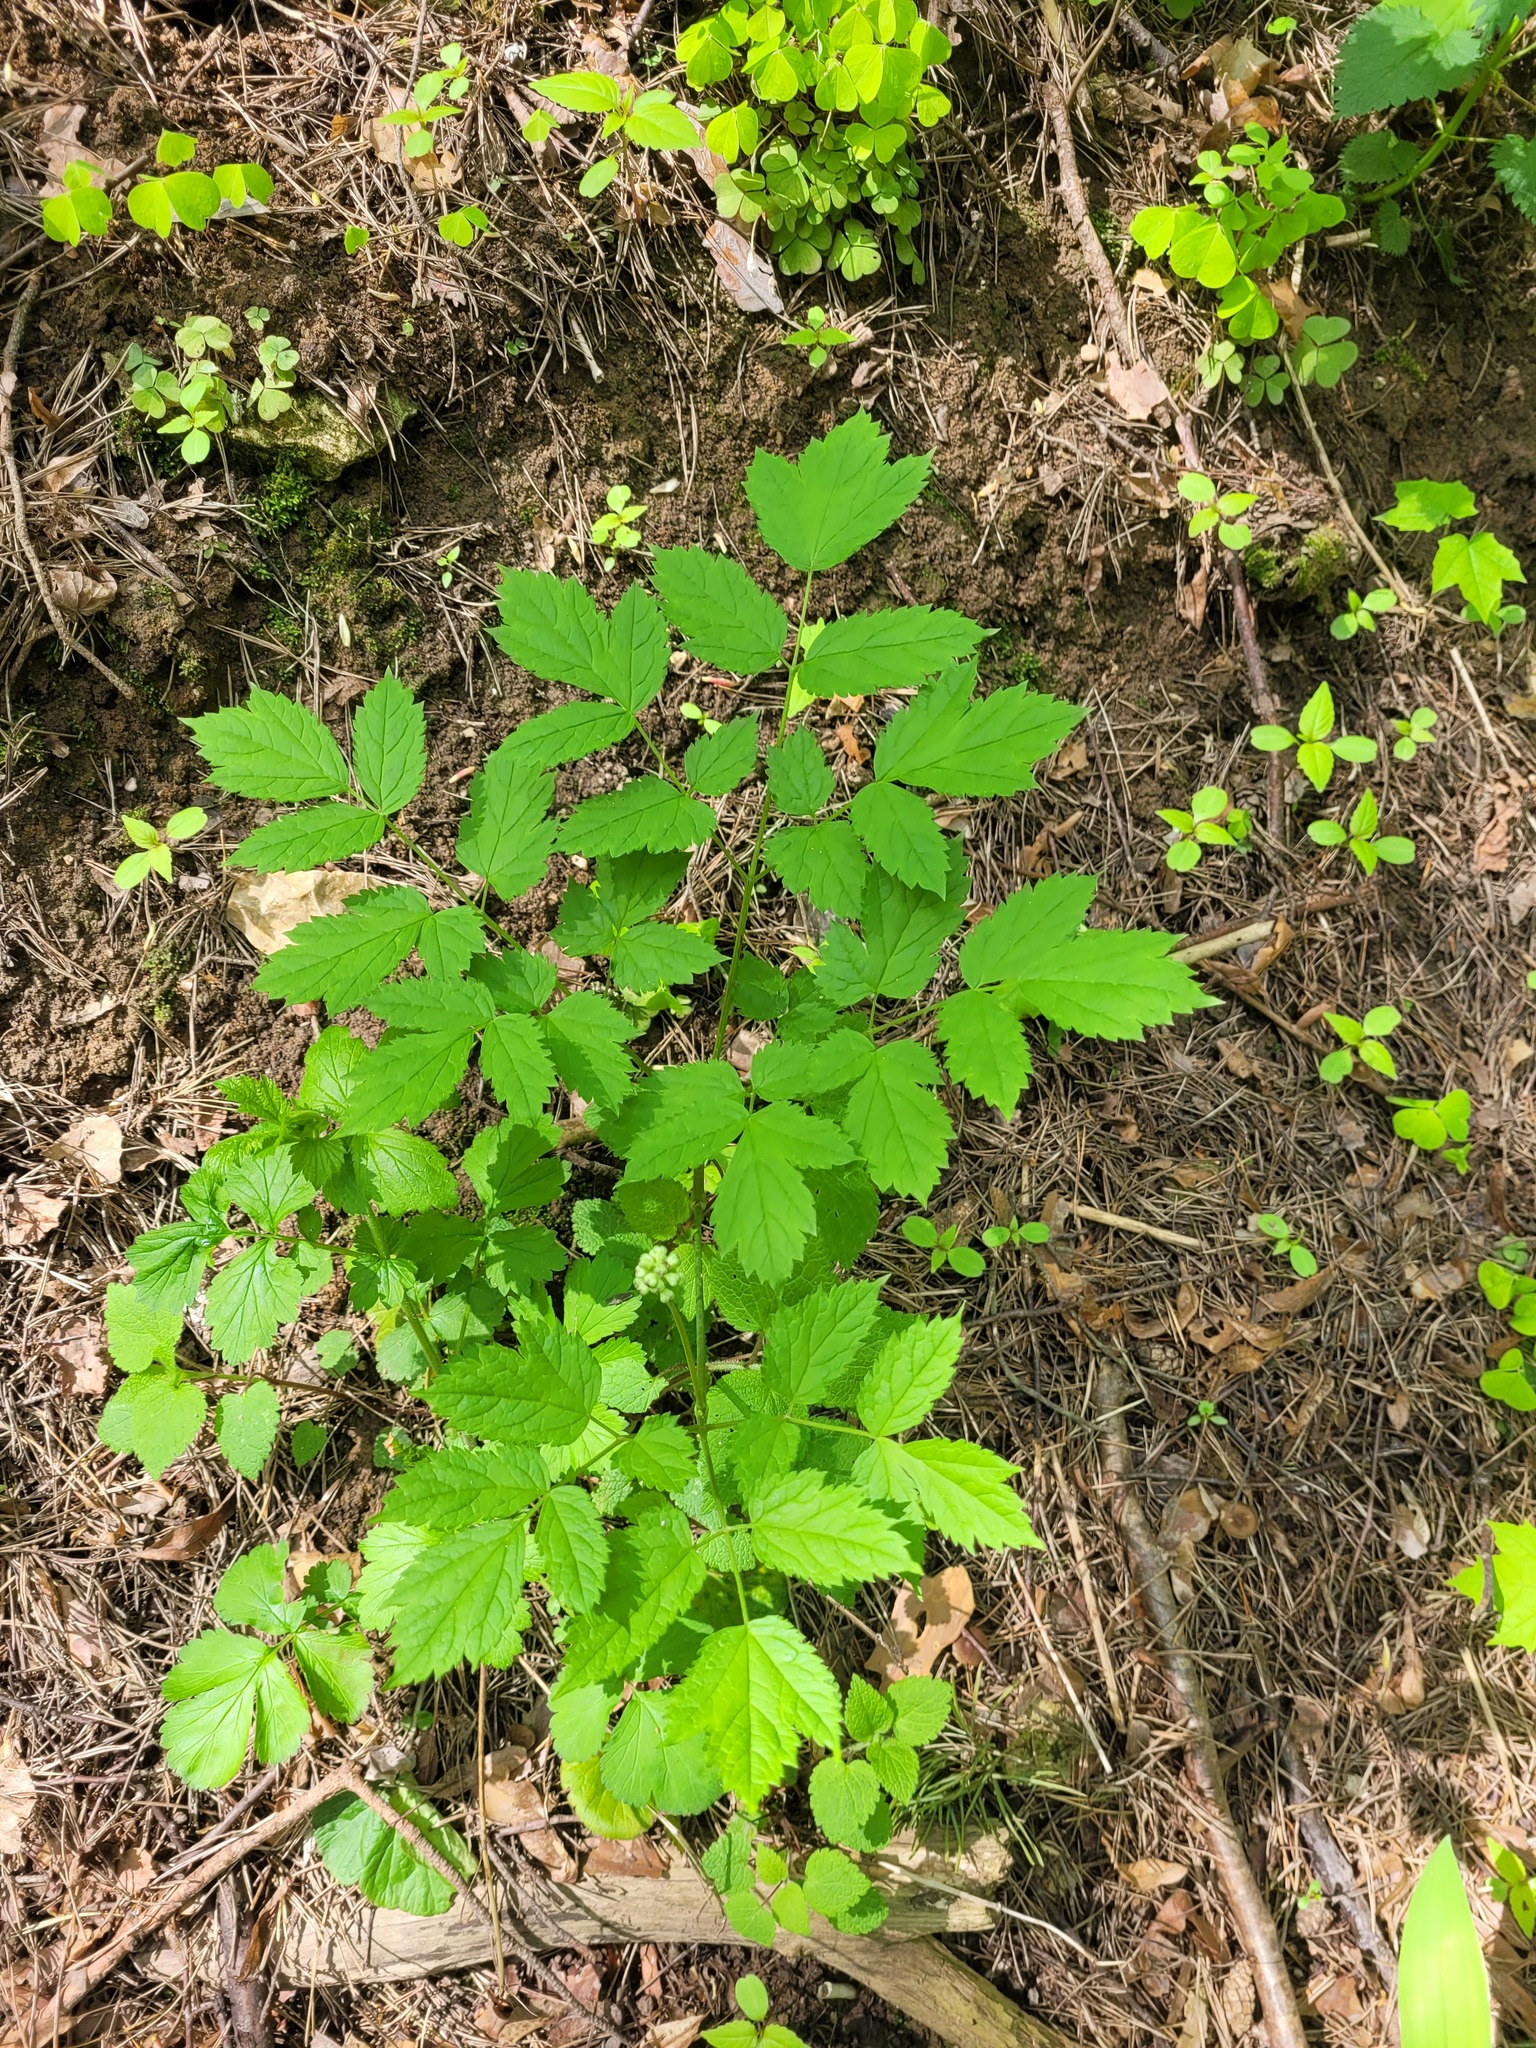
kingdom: Plantae
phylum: Tracheophyta
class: Magnoliopsida
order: Ranunculales
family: Ranunculaceae
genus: Actaea
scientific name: Actaea spicata
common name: Baneberry
